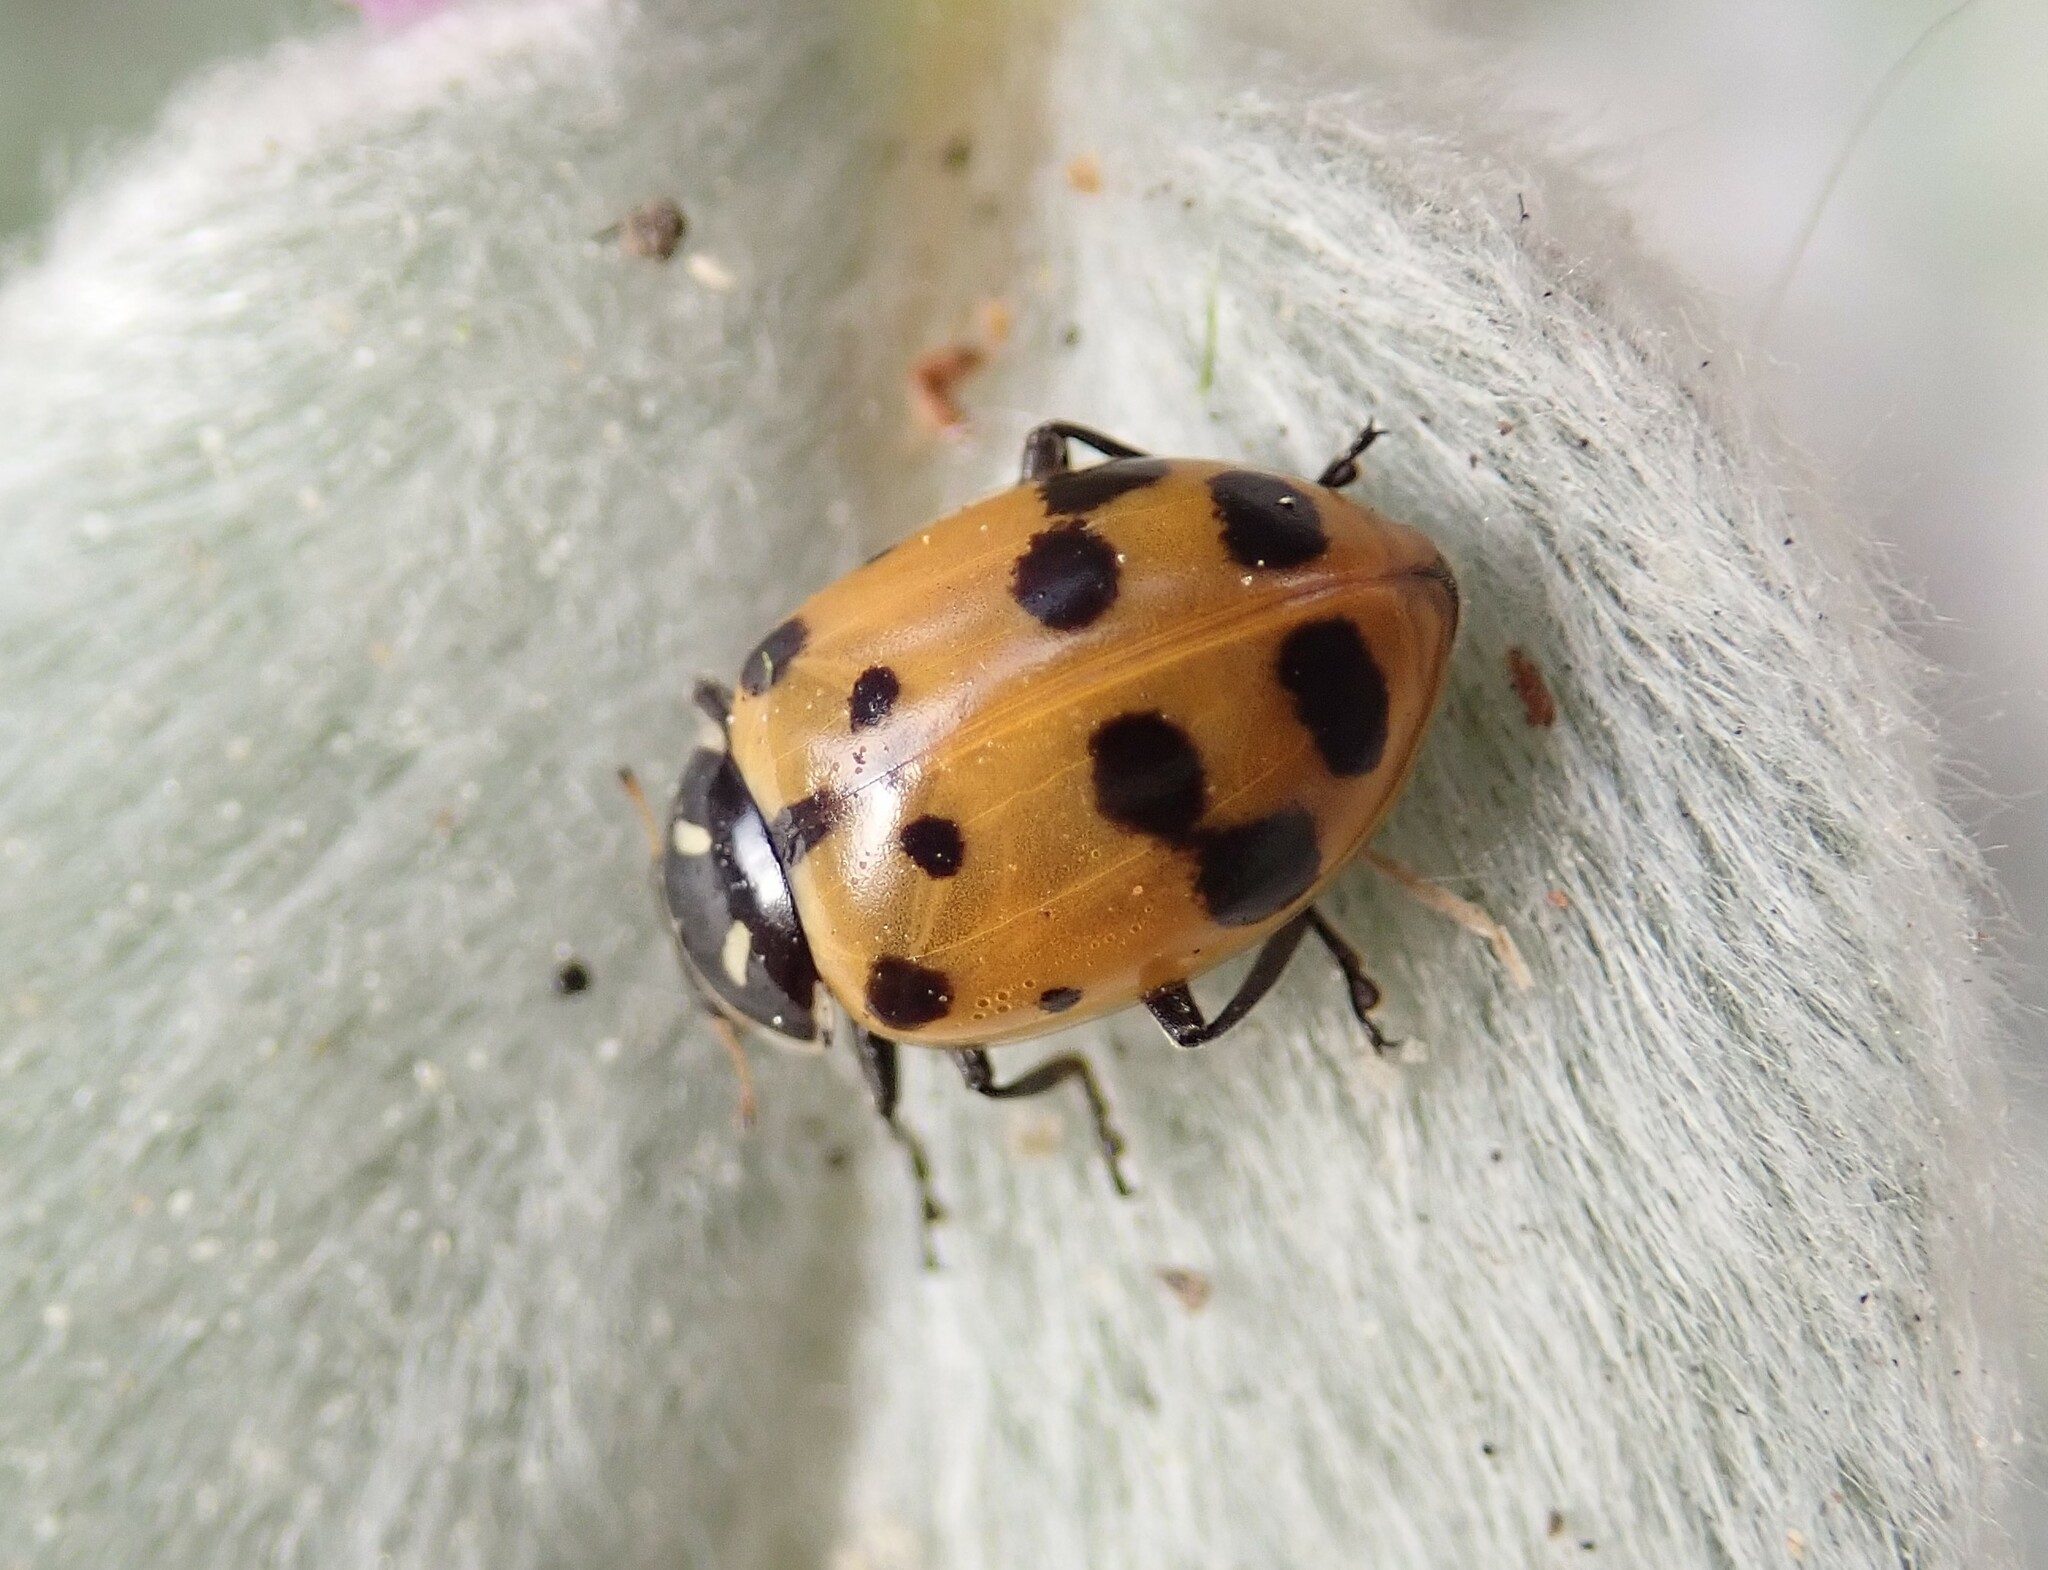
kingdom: Animalia
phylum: Arthropoda
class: Insecta
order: Coleoptera
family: Coccinellidae
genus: Hippodamia
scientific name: Hippodamia convergens
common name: Convergent lady beetle
